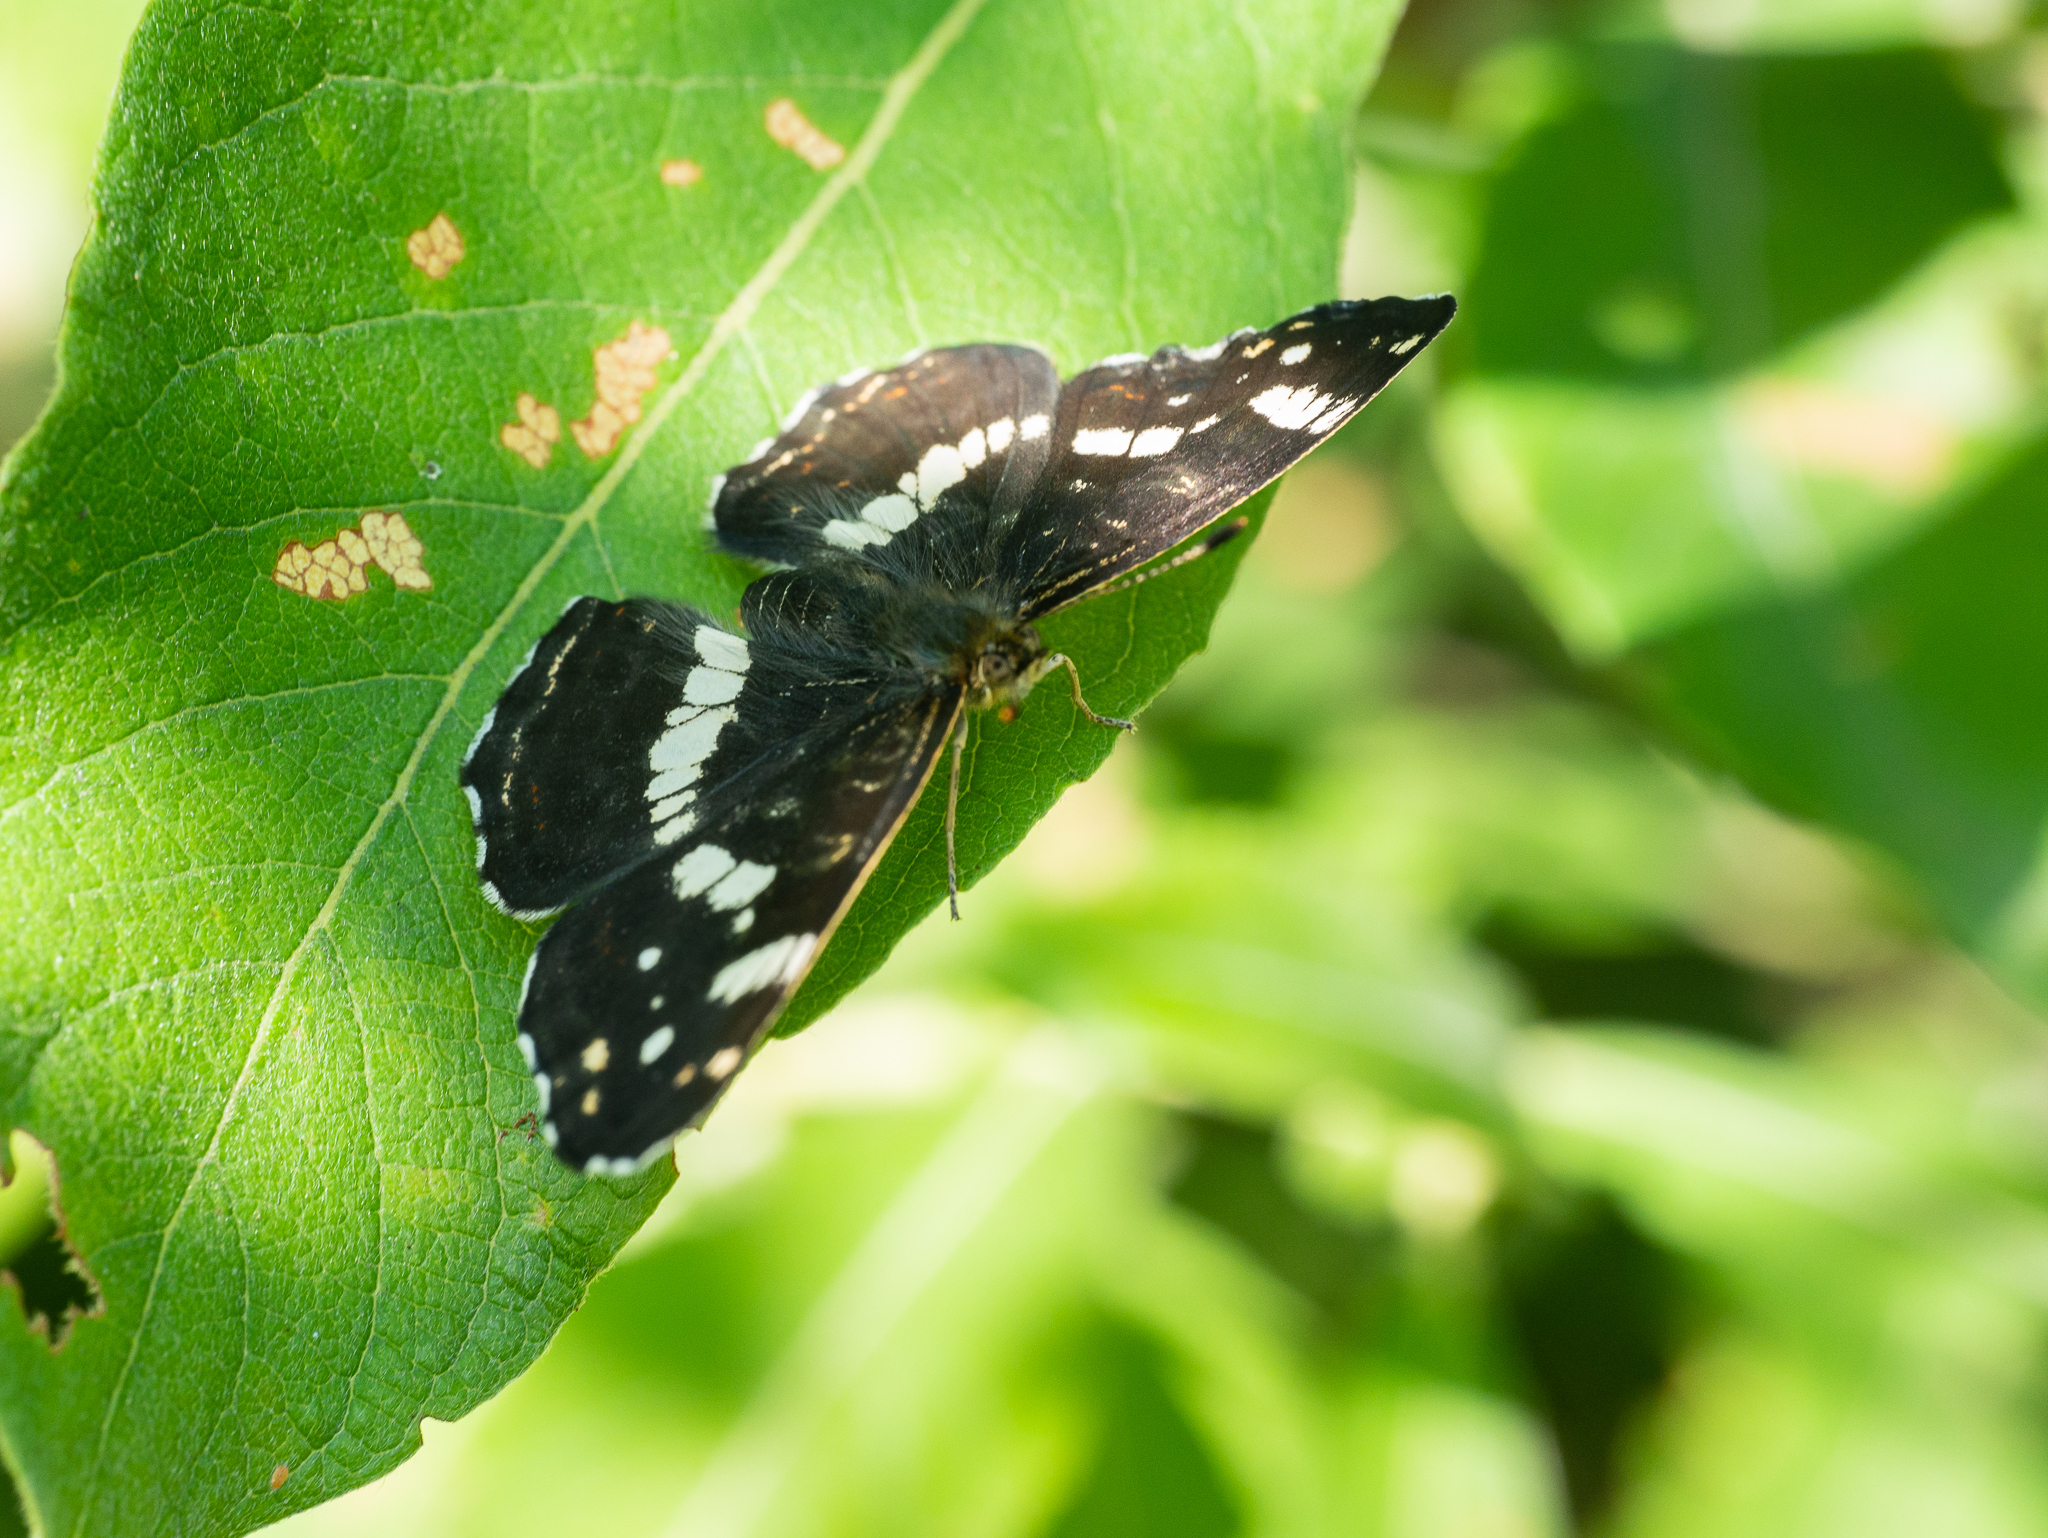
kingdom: Animalia
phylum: Arthropoda
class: Insecta
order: Lepidoptera
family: Nymphalidae
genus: Araschnia
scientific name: Araschnia levana
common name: Map butterfly
